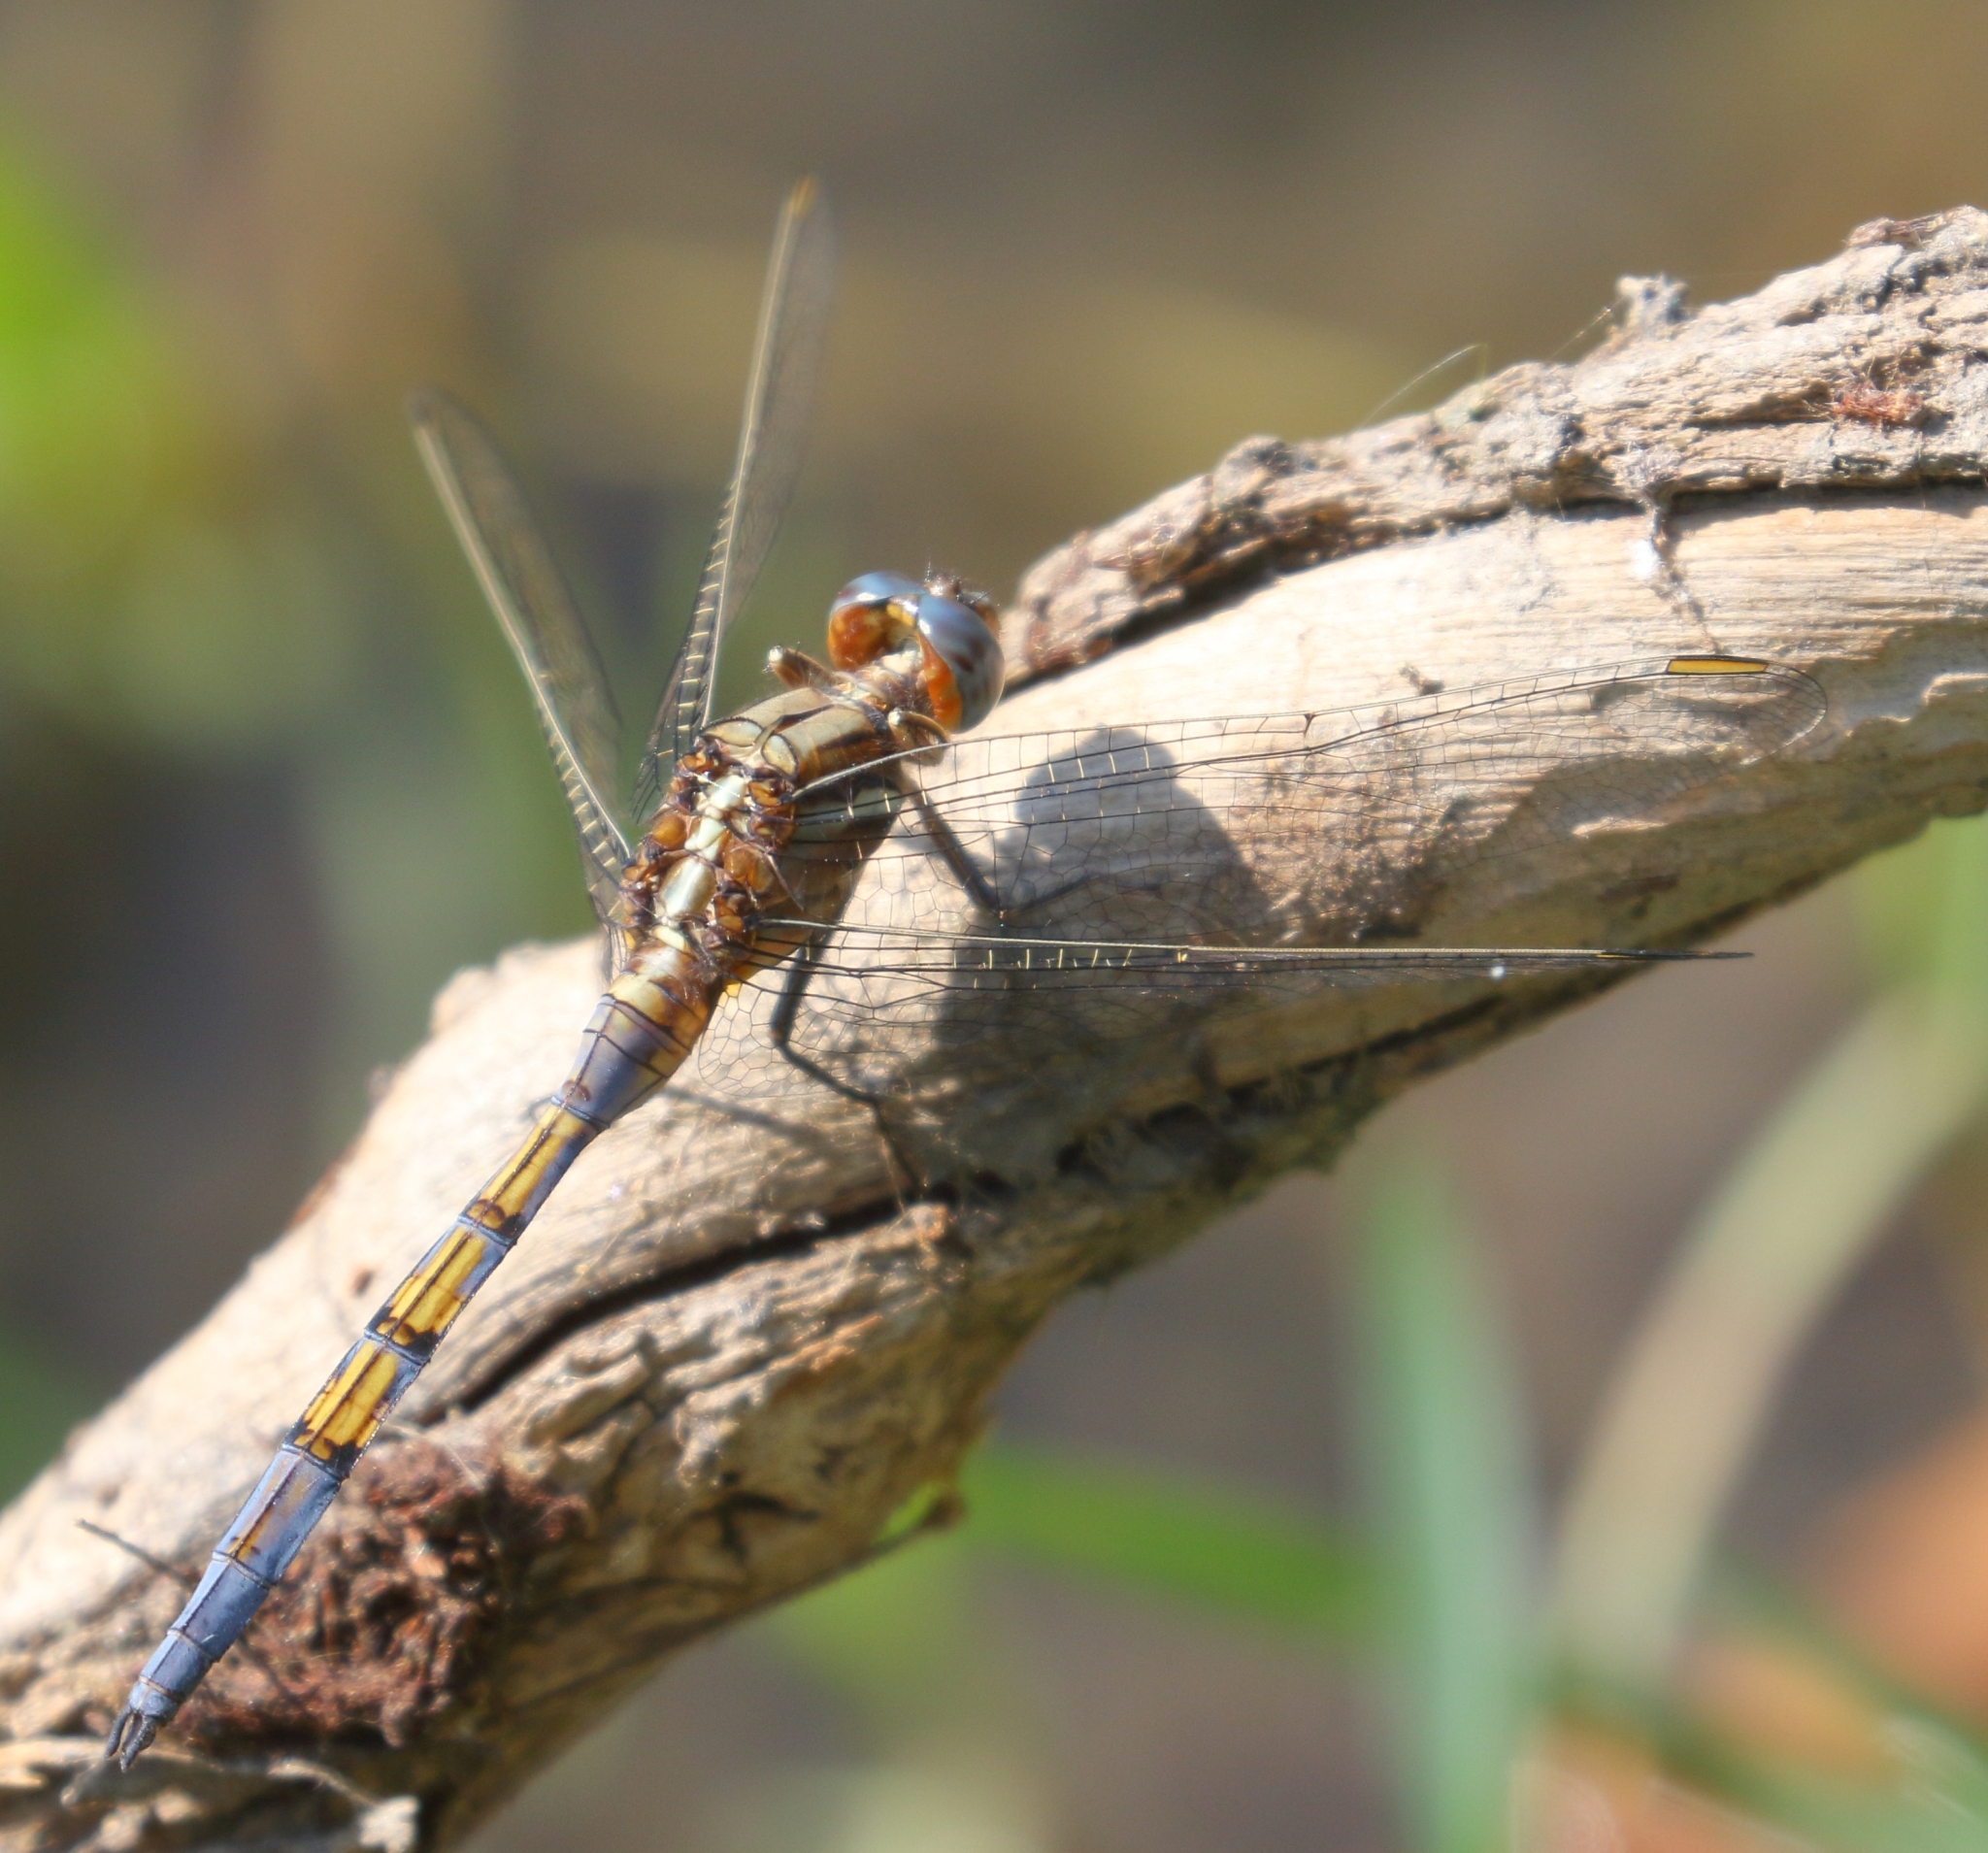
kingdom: Animalia
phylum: Arthropoda
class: Insecta
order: Odonata
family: Libellulidae
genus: Orthetrum
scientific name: Orthetrum chrysostigma
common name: Epaulet skimmer
